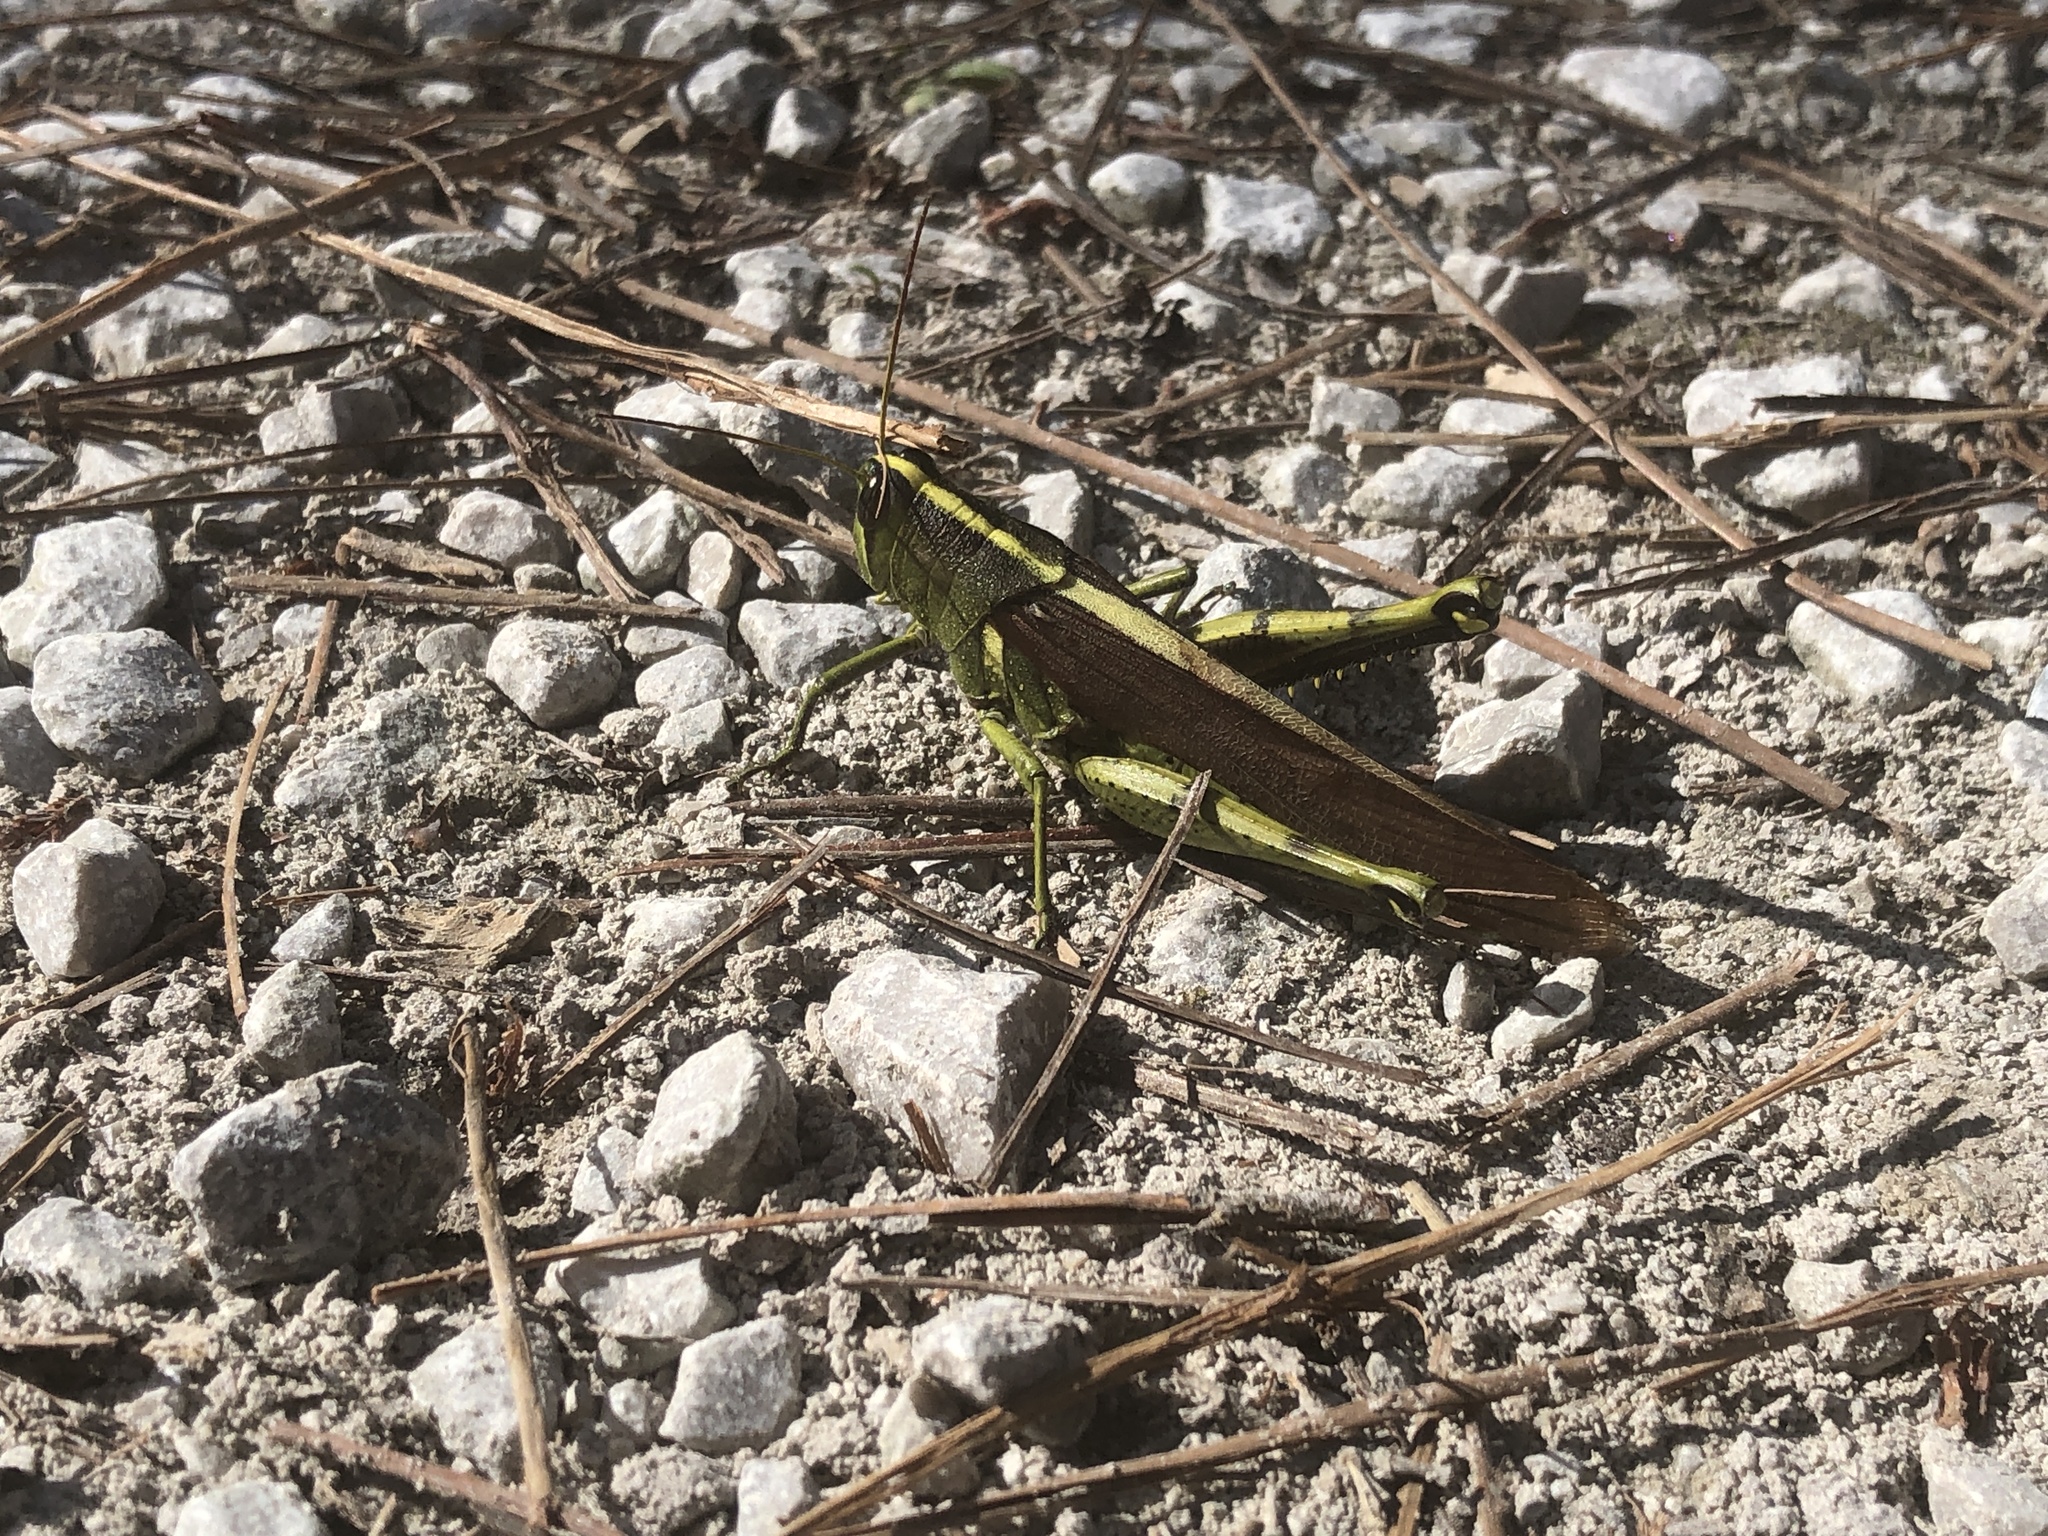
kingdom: Animalia
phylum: Arthropoda
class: Insecta
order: Orthoptera
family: Acrididae
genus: Schistocerca
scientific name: Schistocerca obscura
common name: Obscure bird grasshopper
